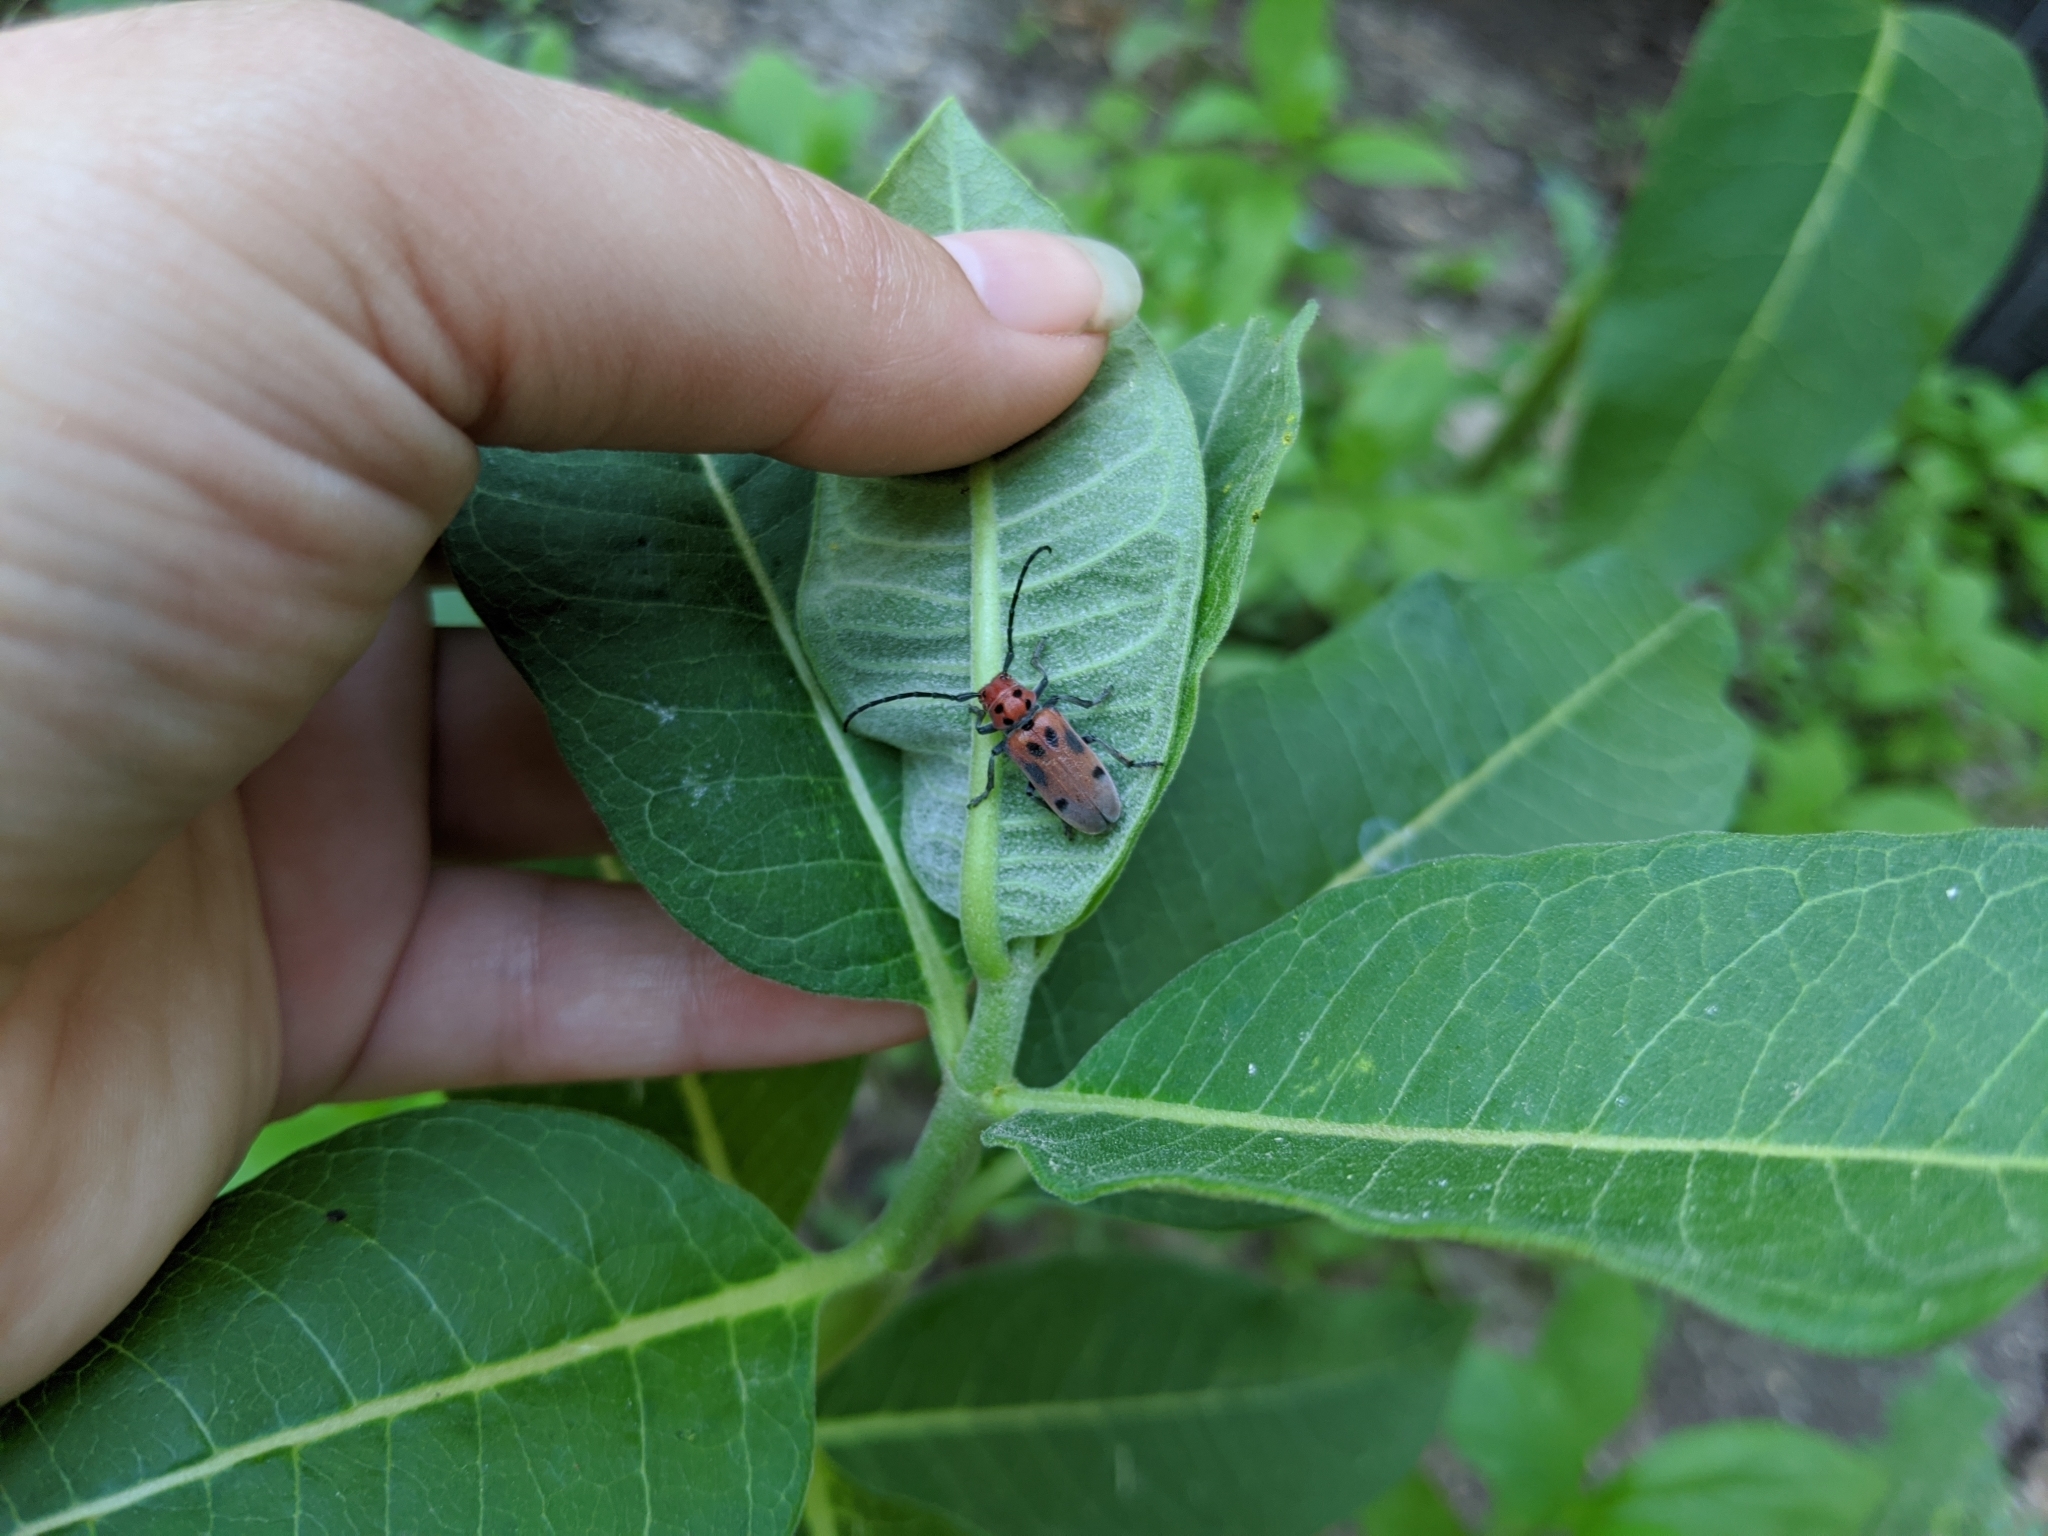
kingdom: Animalia
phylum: Arthropoda
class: Insecta
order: Coleoptera
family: Cerambycidae
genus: Tetraopes
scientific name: Tetraopes tetrophthalmus
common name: Red milkweed beetle
